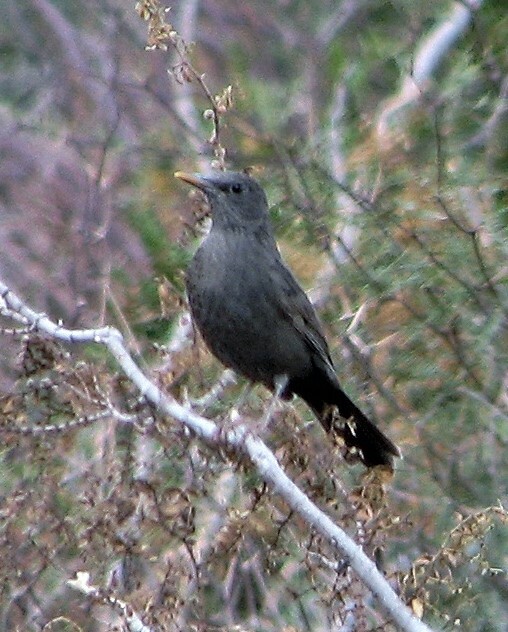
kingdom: Animalia
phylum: Chordata
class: Aves
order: Passeriformes
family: Turdidae
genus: Turdus
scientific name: Turdus chiguanco
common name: Chiguanco thrush
